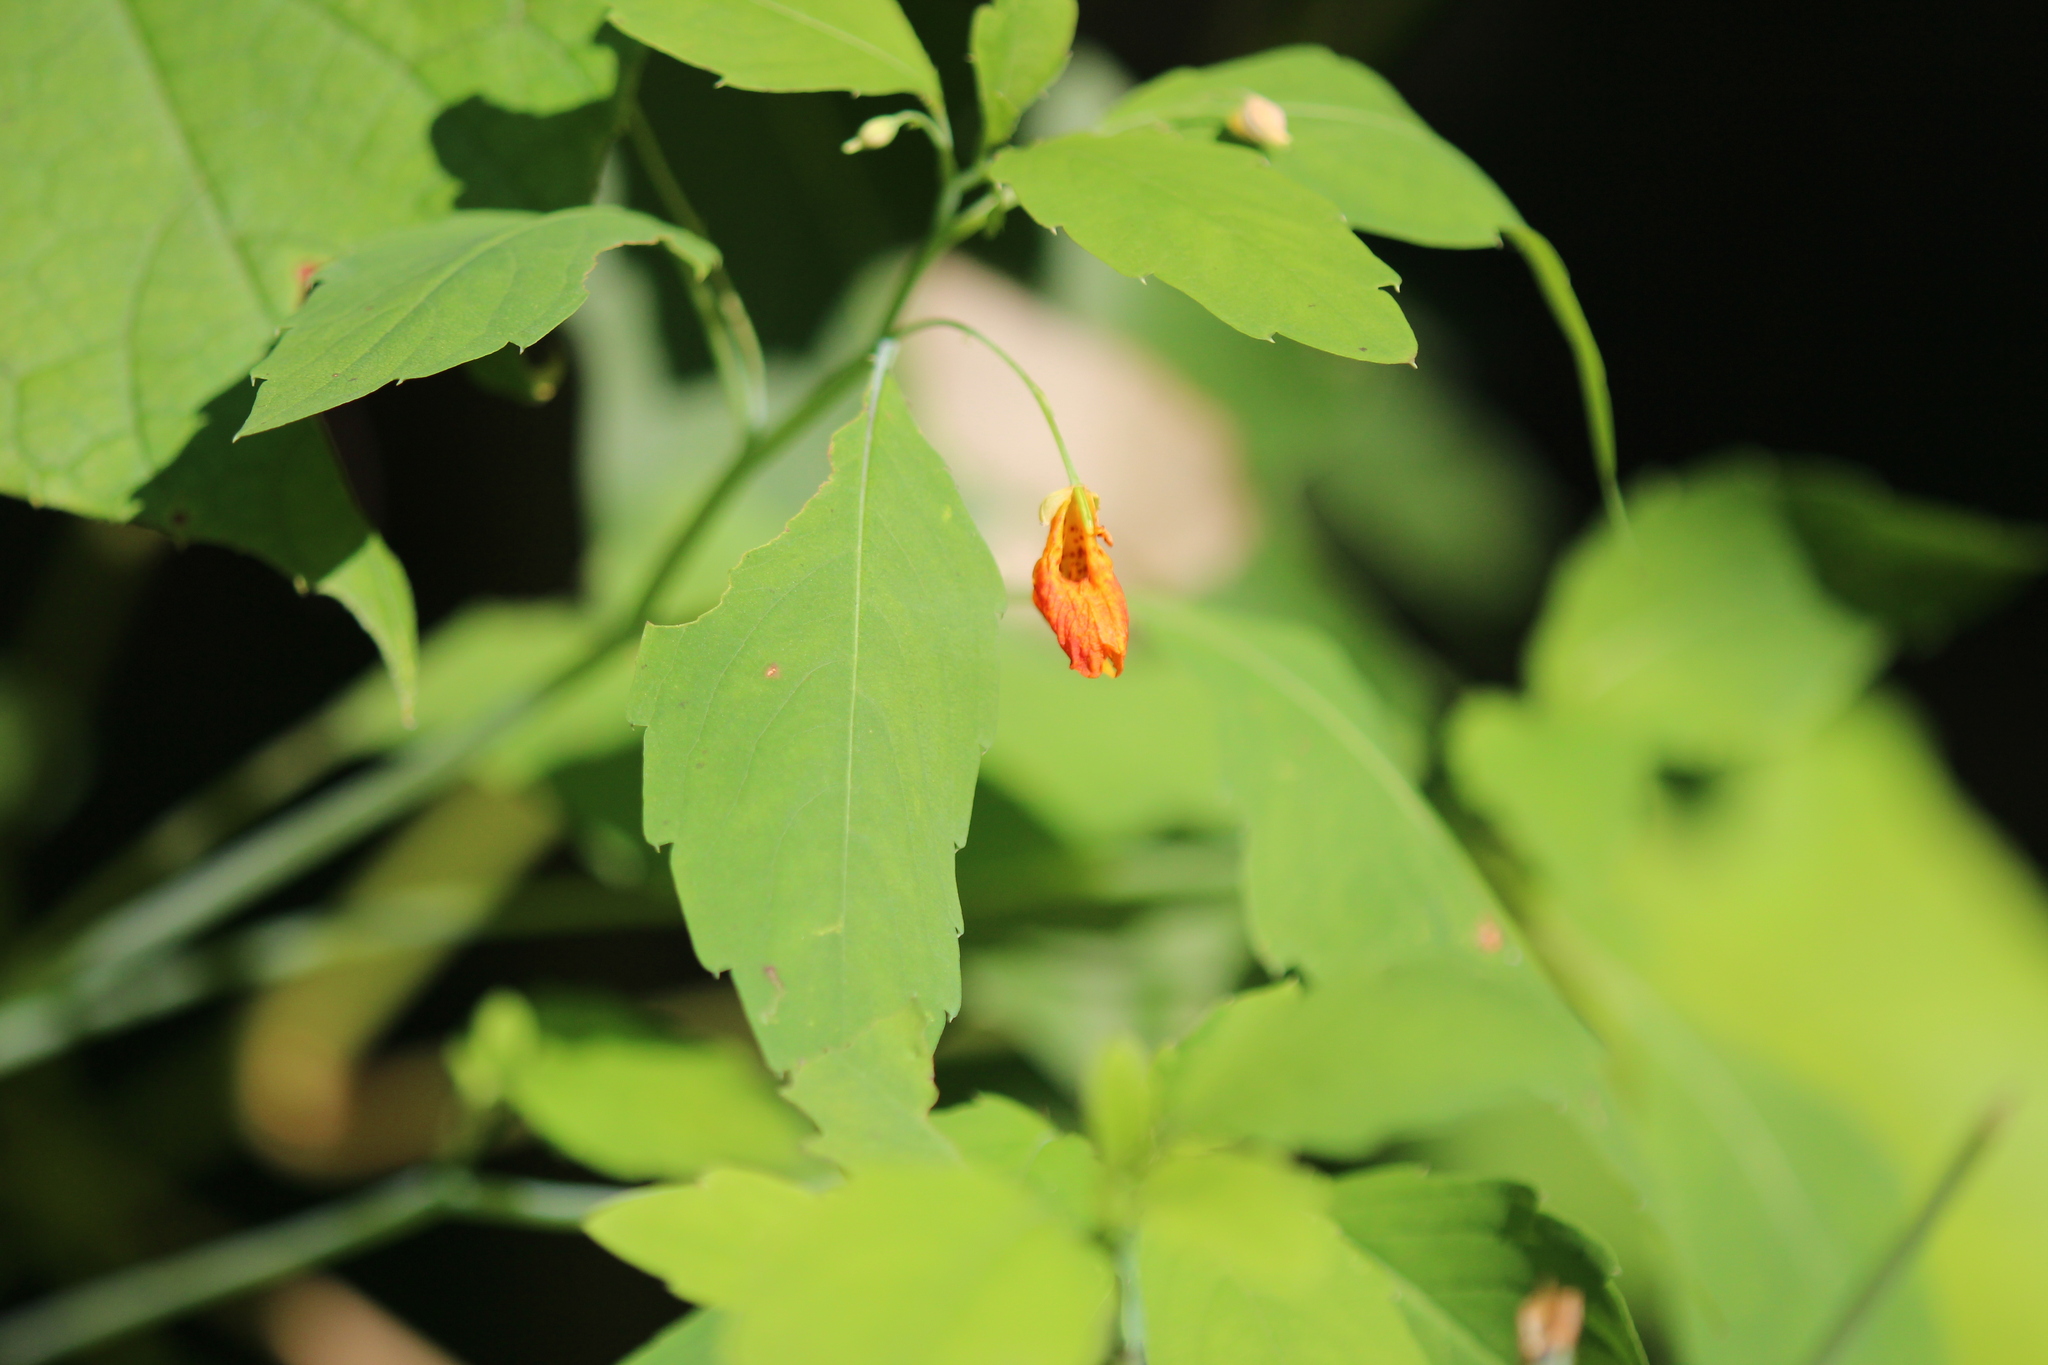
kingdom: Plantae
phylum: Tracheophyta
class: Magnoliopsida
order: Ericales
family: Balsaminaceae
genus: Impatiens
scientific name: Impatiens capensis
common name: Orange balsam
